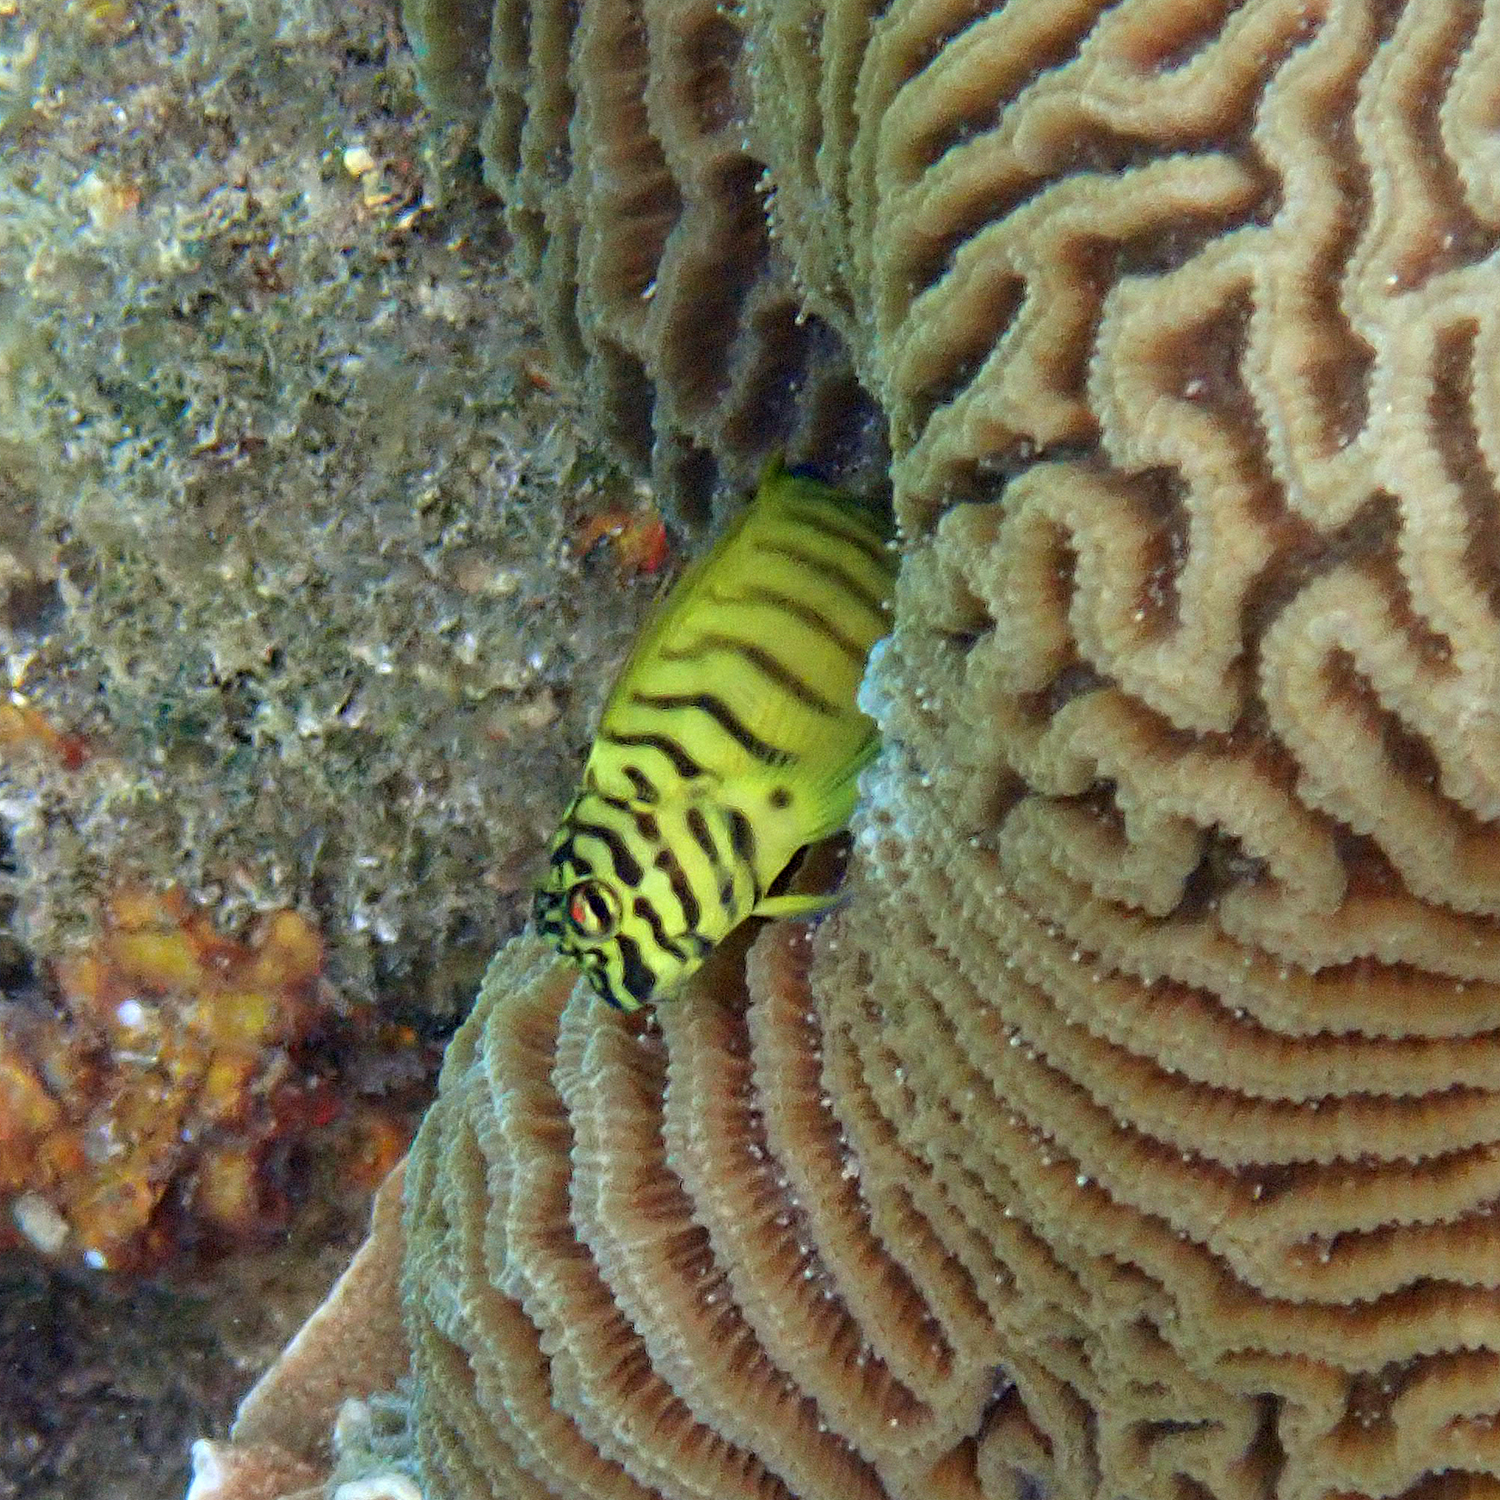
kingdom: Animalia
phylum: Chordata
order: Perciformes
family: Blenniidae
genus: Cirripectes
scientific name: Cirripectes castaneus
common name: Chestnut blenny
